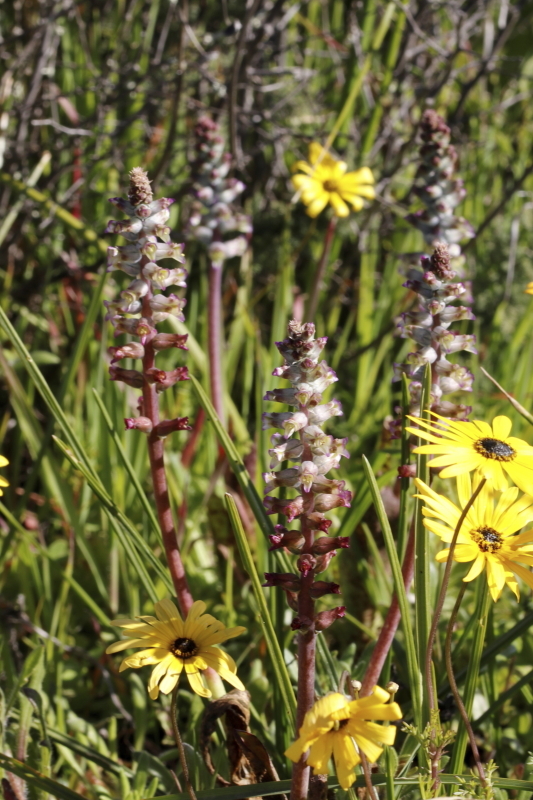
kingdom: Plantae
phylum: Tracheophyta
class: Liliopsida
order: Asparagales
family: Asparagaceae
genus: Lachenalia
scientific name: Lachenalia obscura
